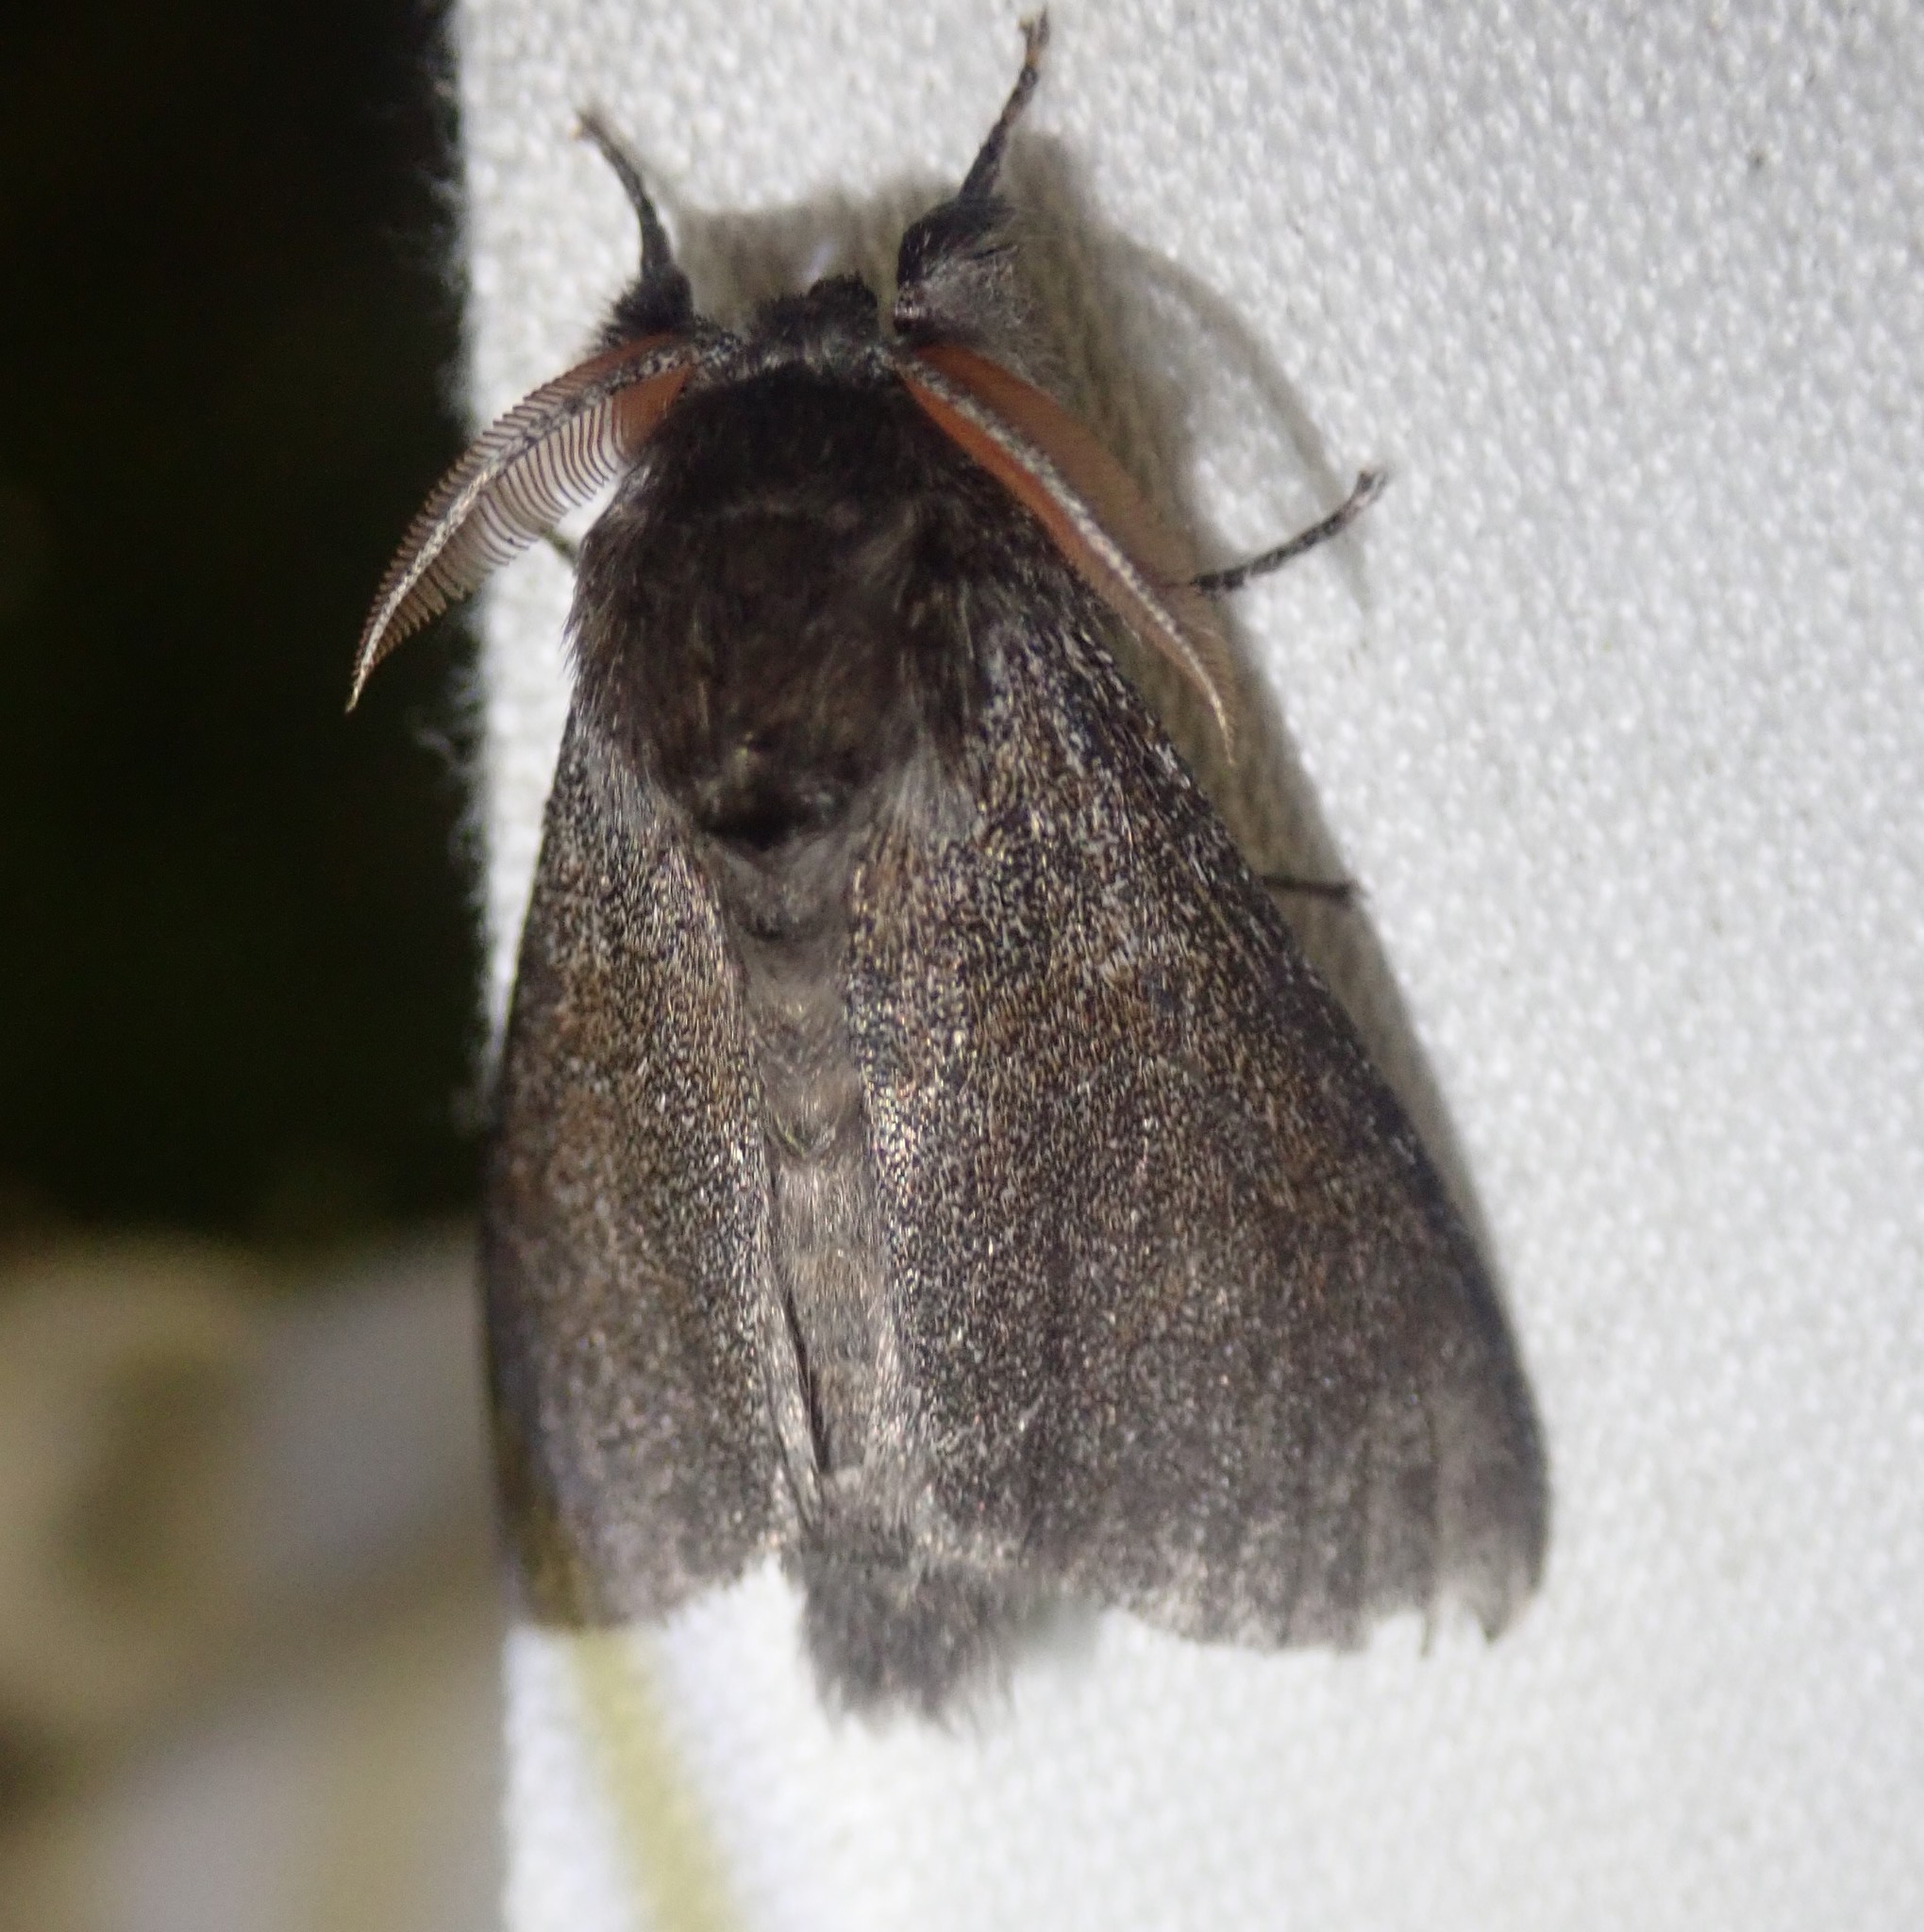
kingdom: Animalia
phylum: Arthropoda
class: Insecta
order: Lepidoptera
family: Erebidae
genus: Calliteara
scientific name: Calliteara pudibunda
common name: Pale tussock
